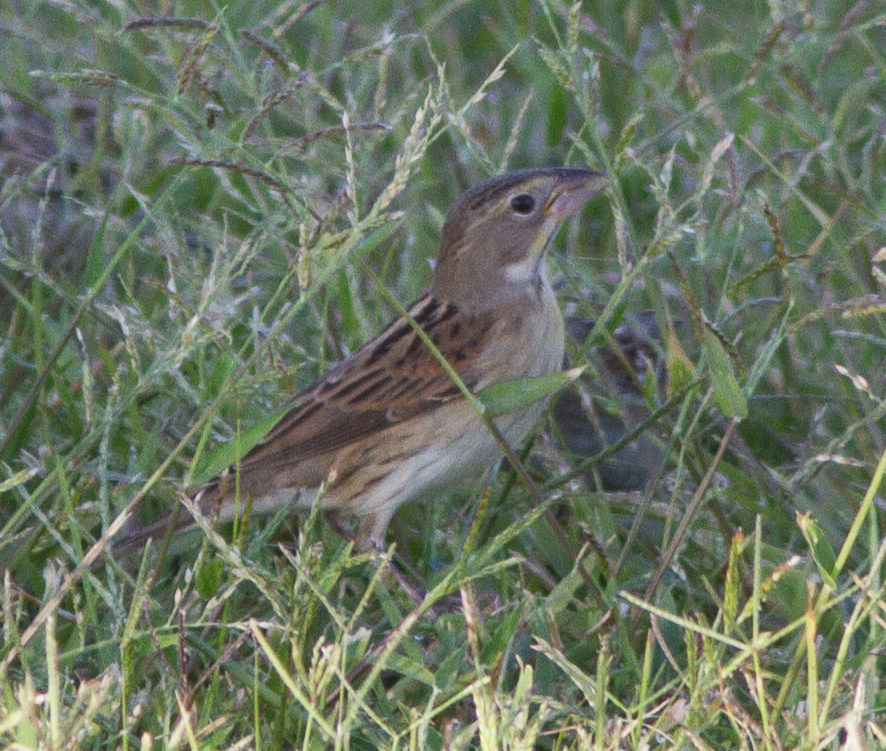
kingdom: Animalia
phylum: Chordata
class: Aves
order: Passeriformes
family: Cardinalidae
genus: Spiza
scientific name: Spiza americana
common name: Dickcissel
